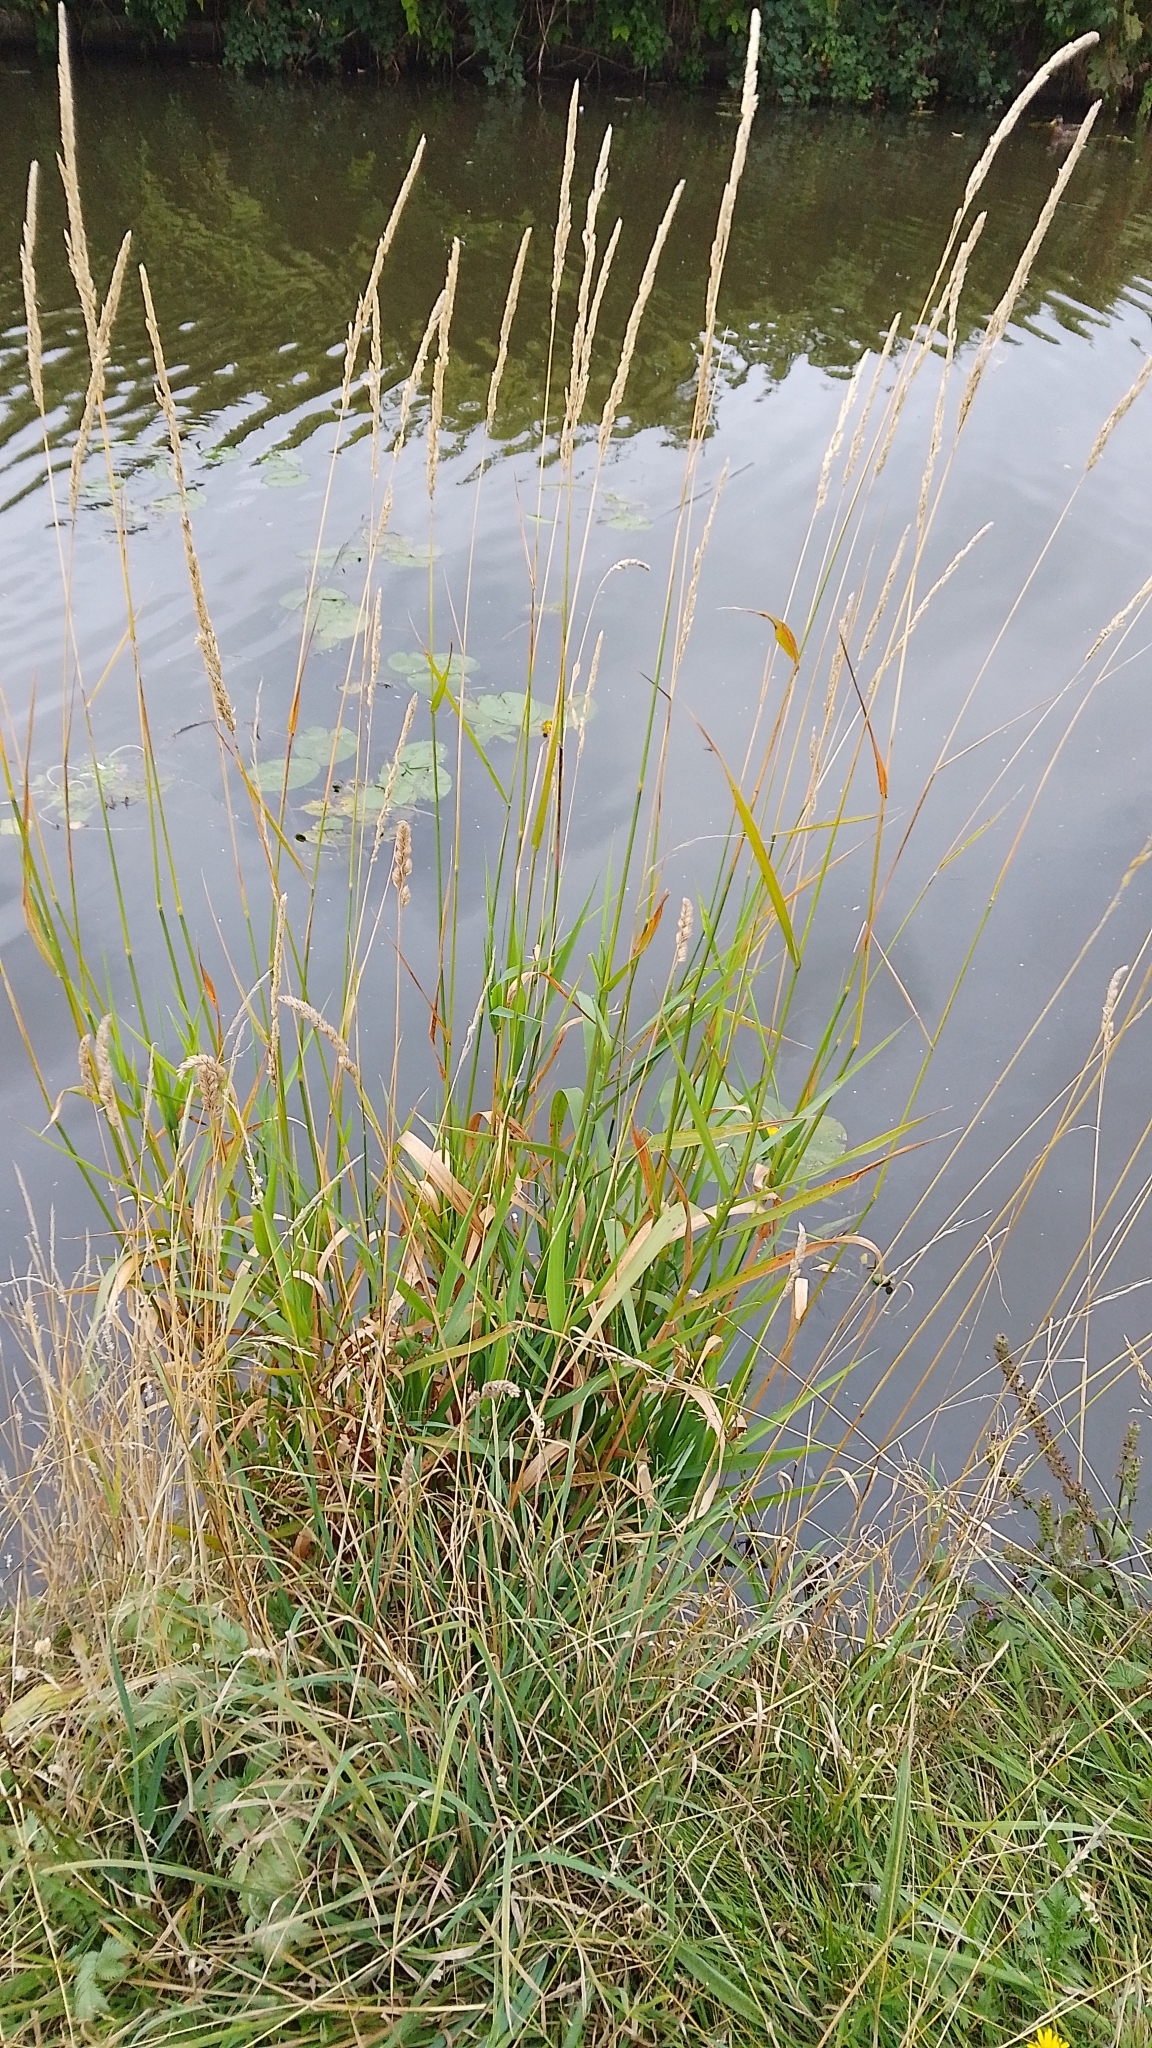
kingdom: Plantae
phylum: Tracheophyta
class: Liliopsida
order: Poales
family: Poaceae
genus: Phalaris
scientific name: Phalaris arundinacea
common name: Reed canary-grass
